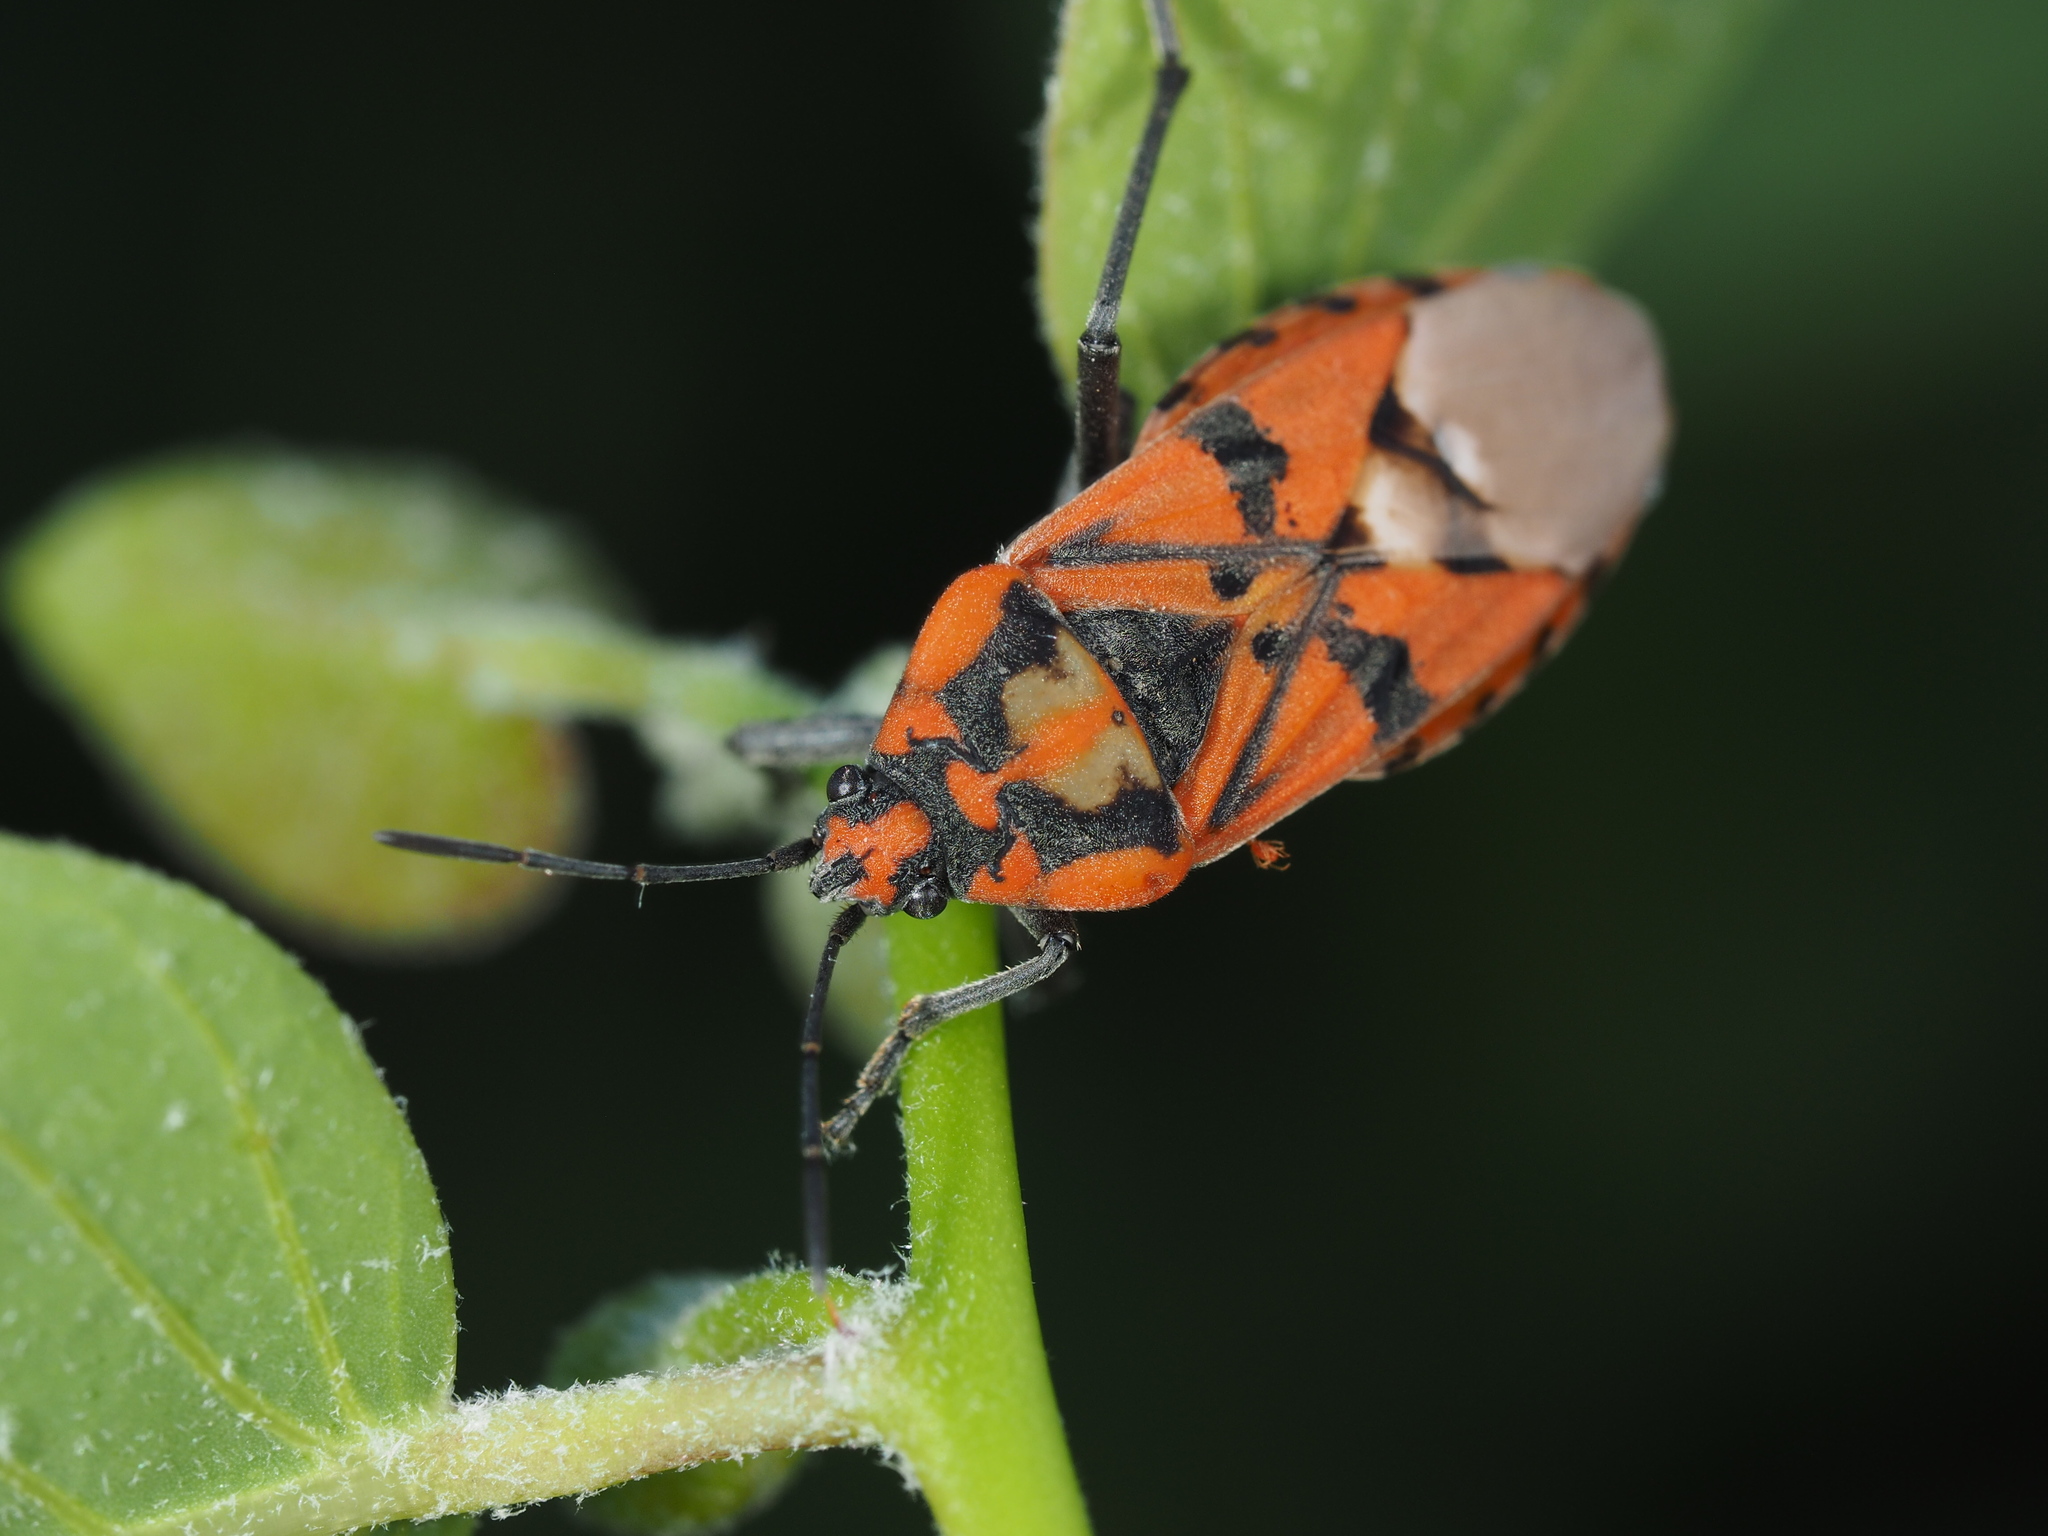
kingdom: Animalia
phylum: Arthropoda
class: Insecta
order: Hemiptera
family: Lygaeidae
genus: Spilostethus
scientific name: Spilostethus pandurus
